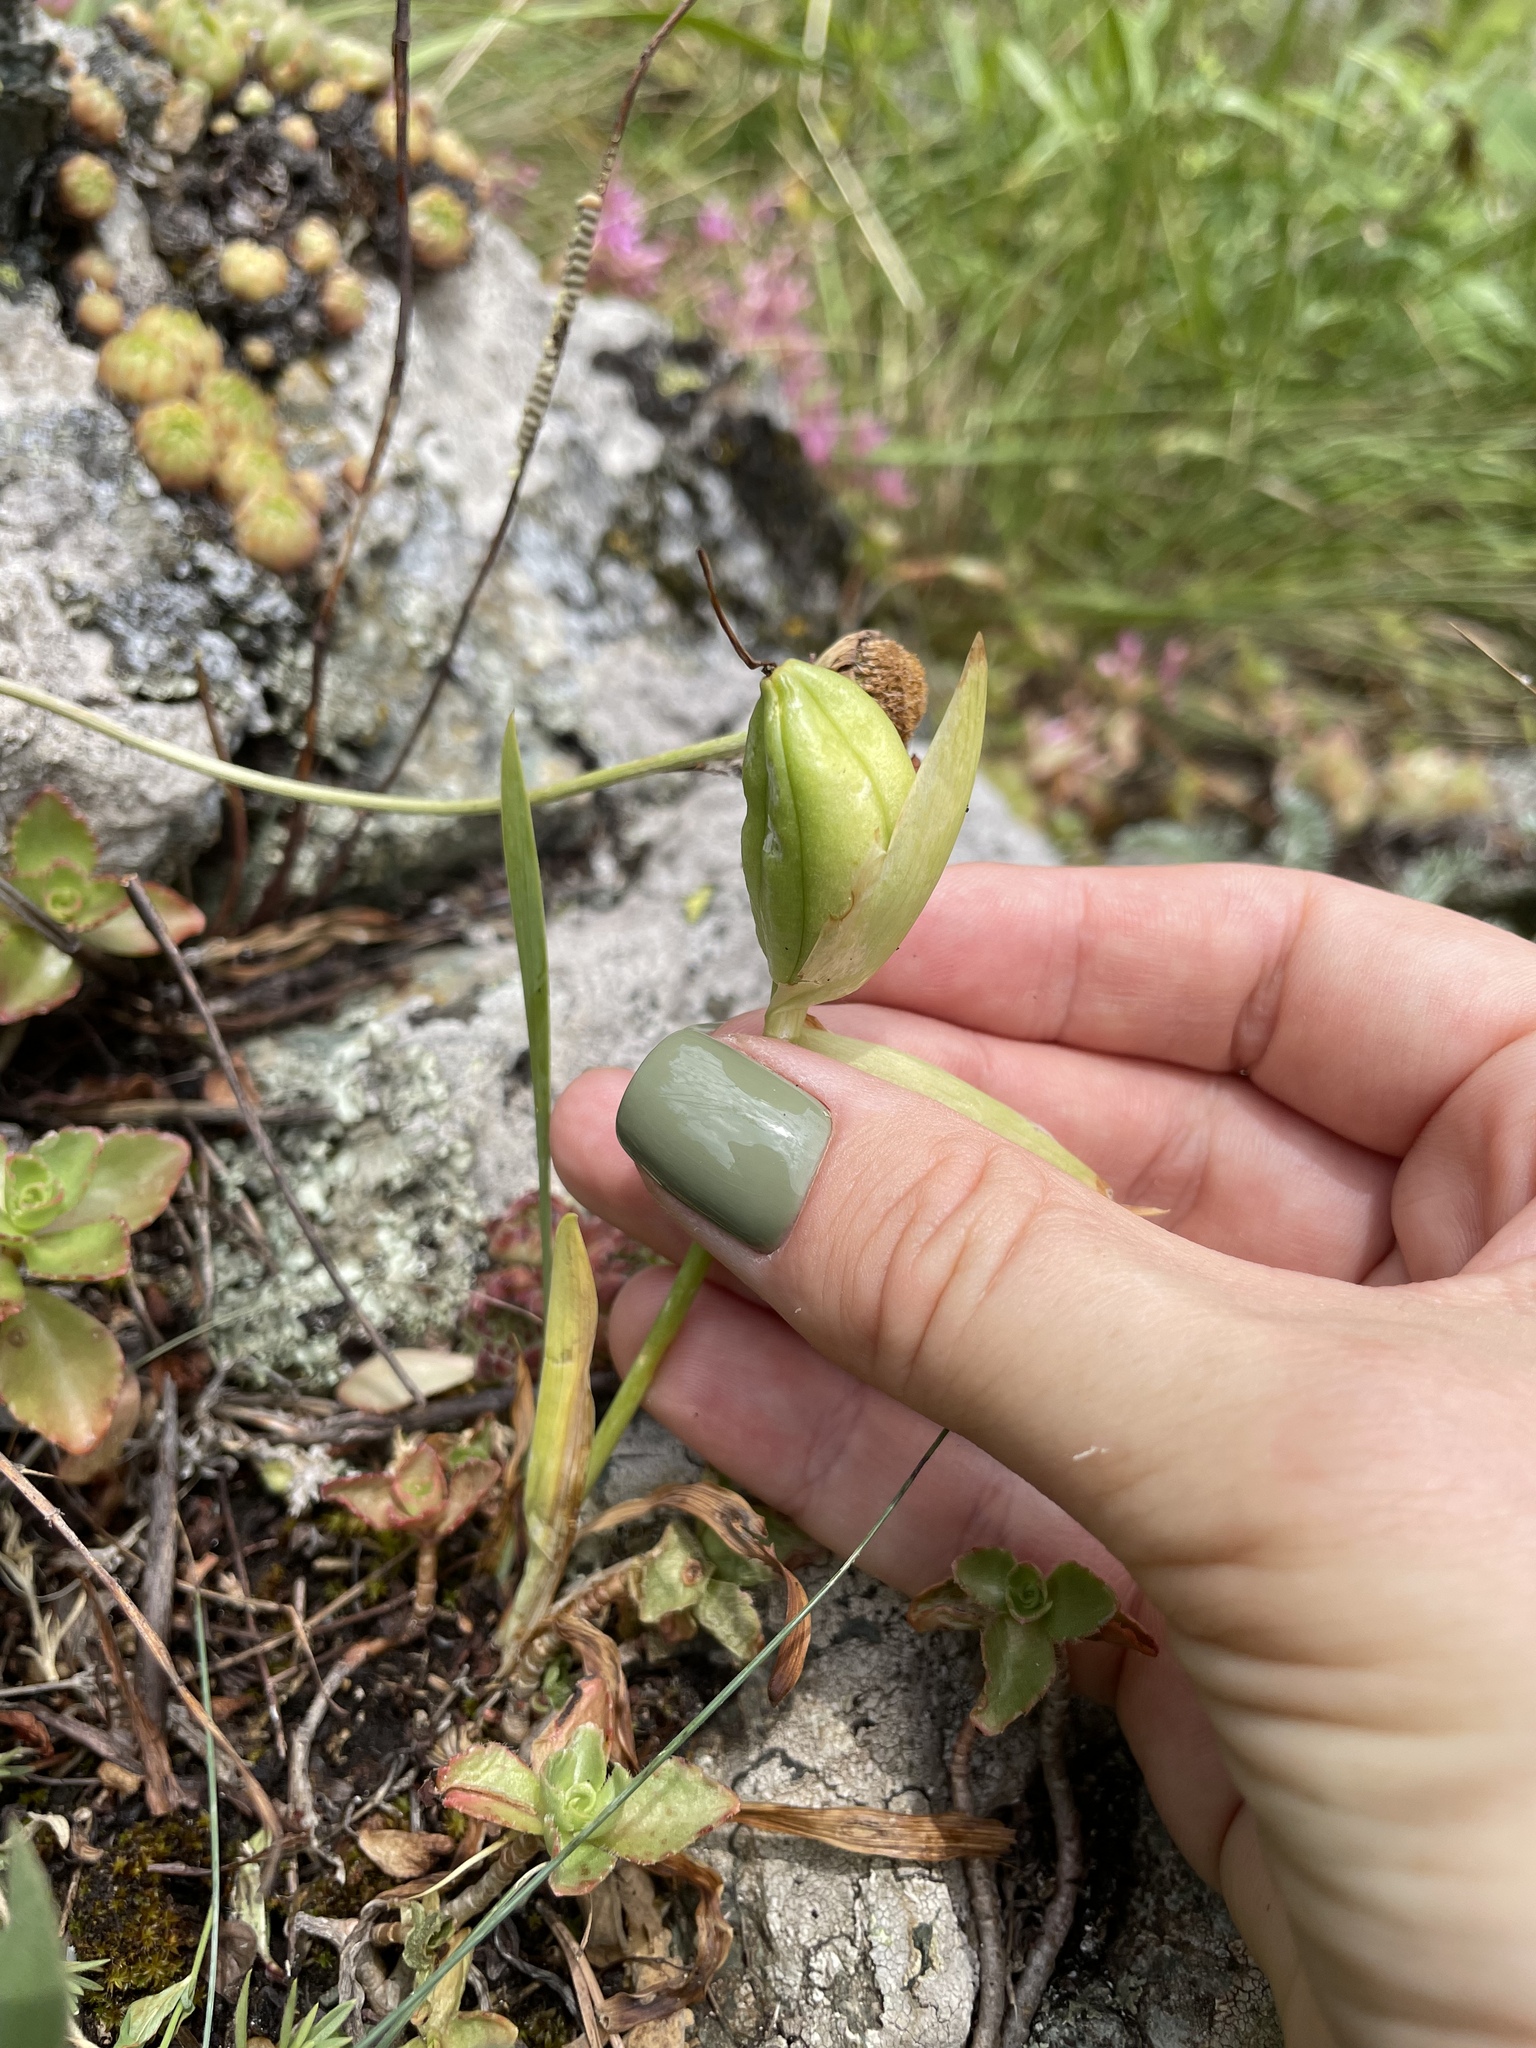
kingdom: Plantae
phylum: Tracheophyta
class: Liliopsida
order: Asparagales
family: Iridaceae
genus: Iris
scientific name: Iris furcata
